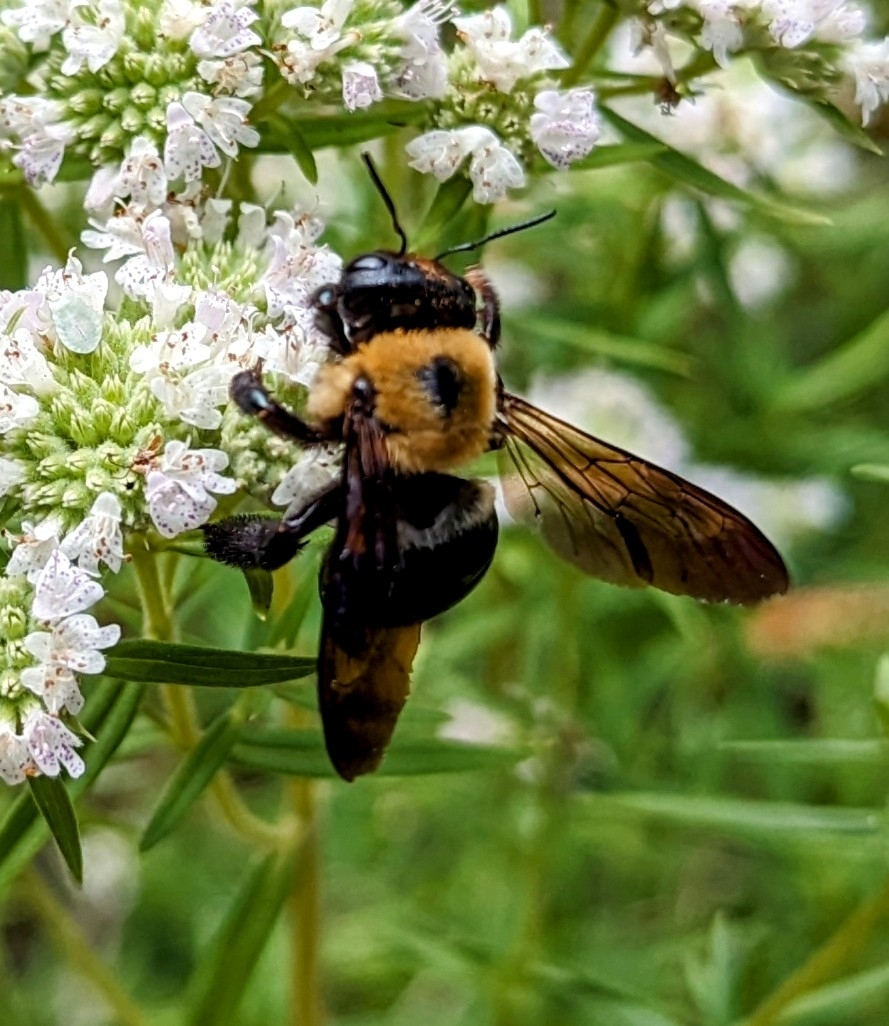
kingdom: Animalia
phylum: Arthropoda
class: Insecta
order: Hymenoptera
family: Apidae
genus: Xylocopa
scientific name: Xylocopa virginica
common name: Carpenter bee
